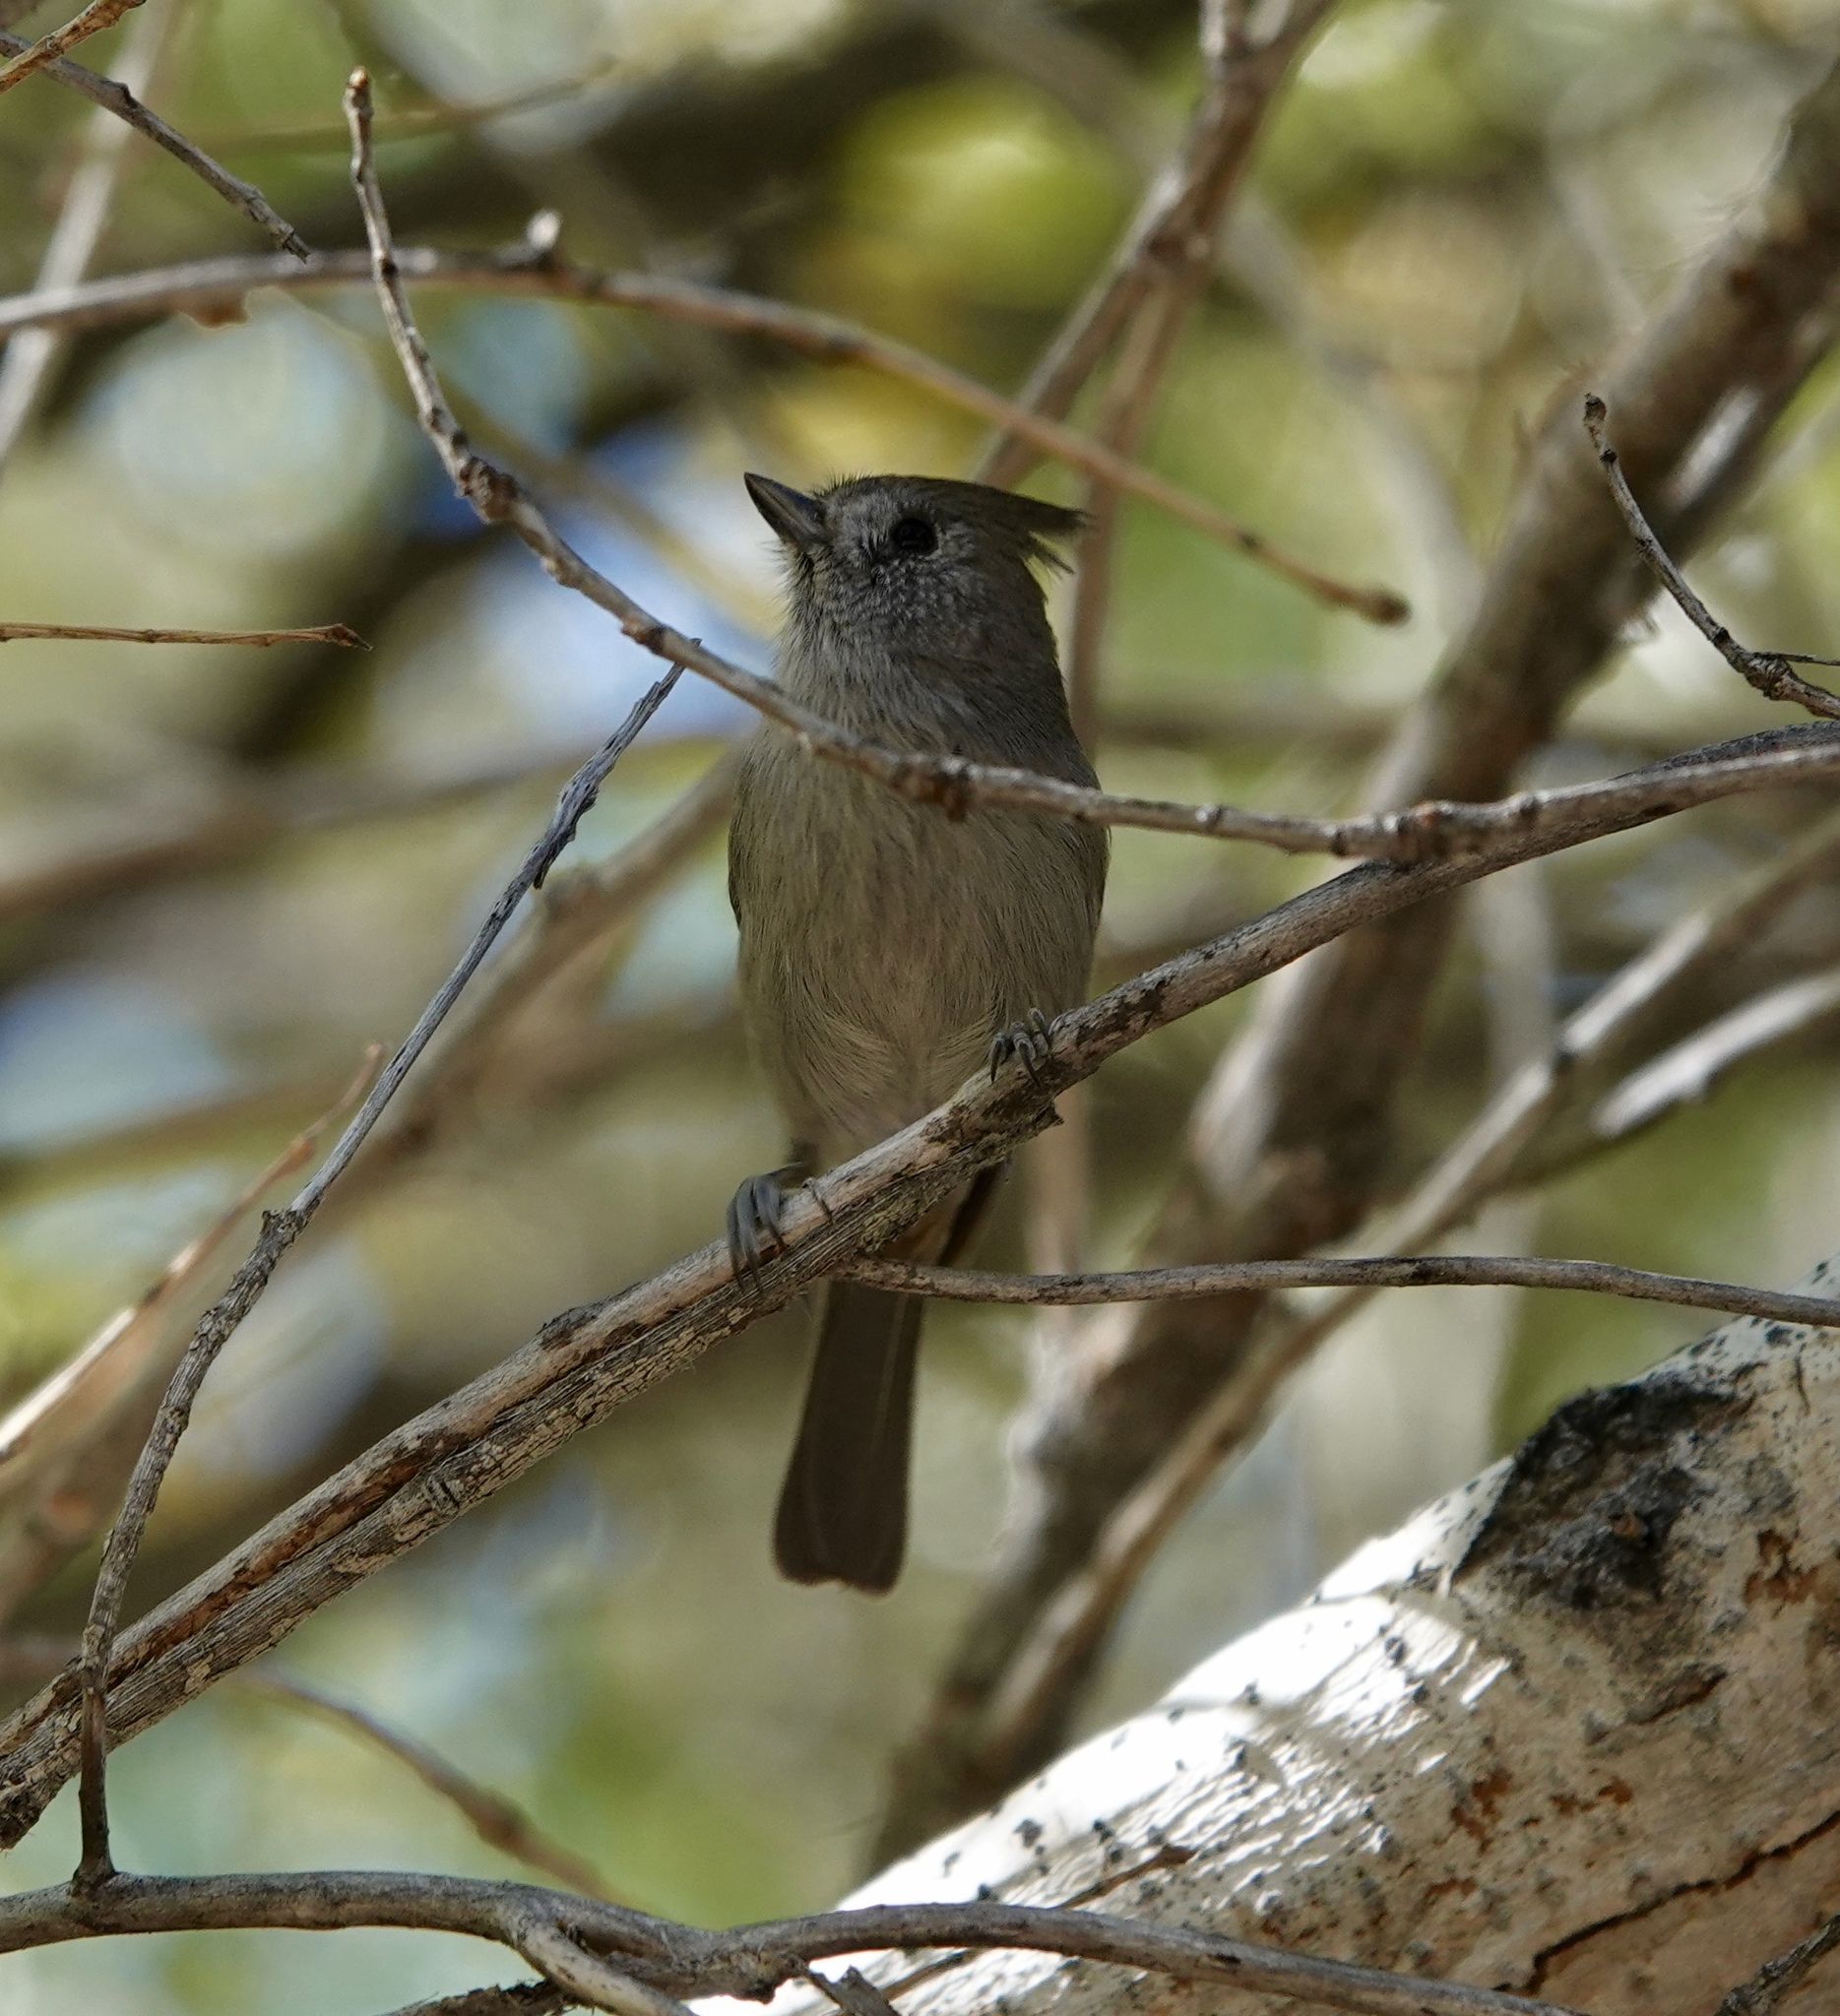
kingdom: Animalia
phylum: Chordata
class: Aves
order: Passeriformes
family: Paridae
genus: Baeolophus
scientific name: Baeolophus inornatus
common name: Oak titmouse
